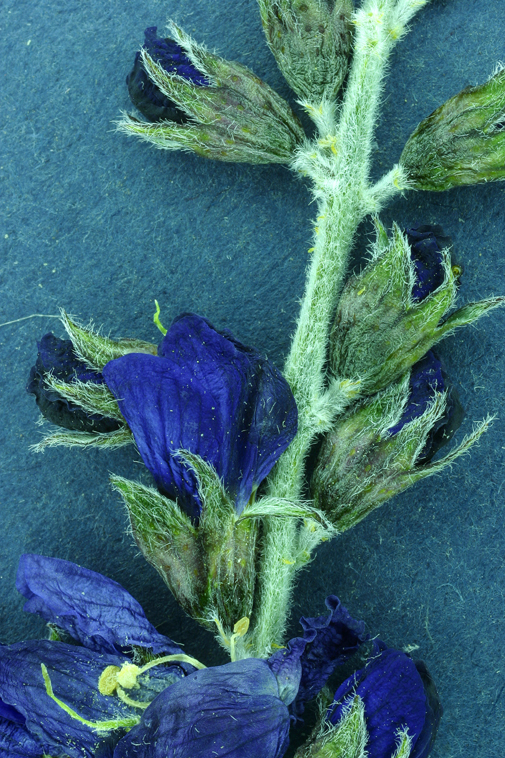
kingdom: Plantae
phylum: Tracheophyta
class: Magnoliopsida
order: Fabales
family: Fabaceae
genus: Psorothamnus
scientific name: Psorothamnus arborescens
